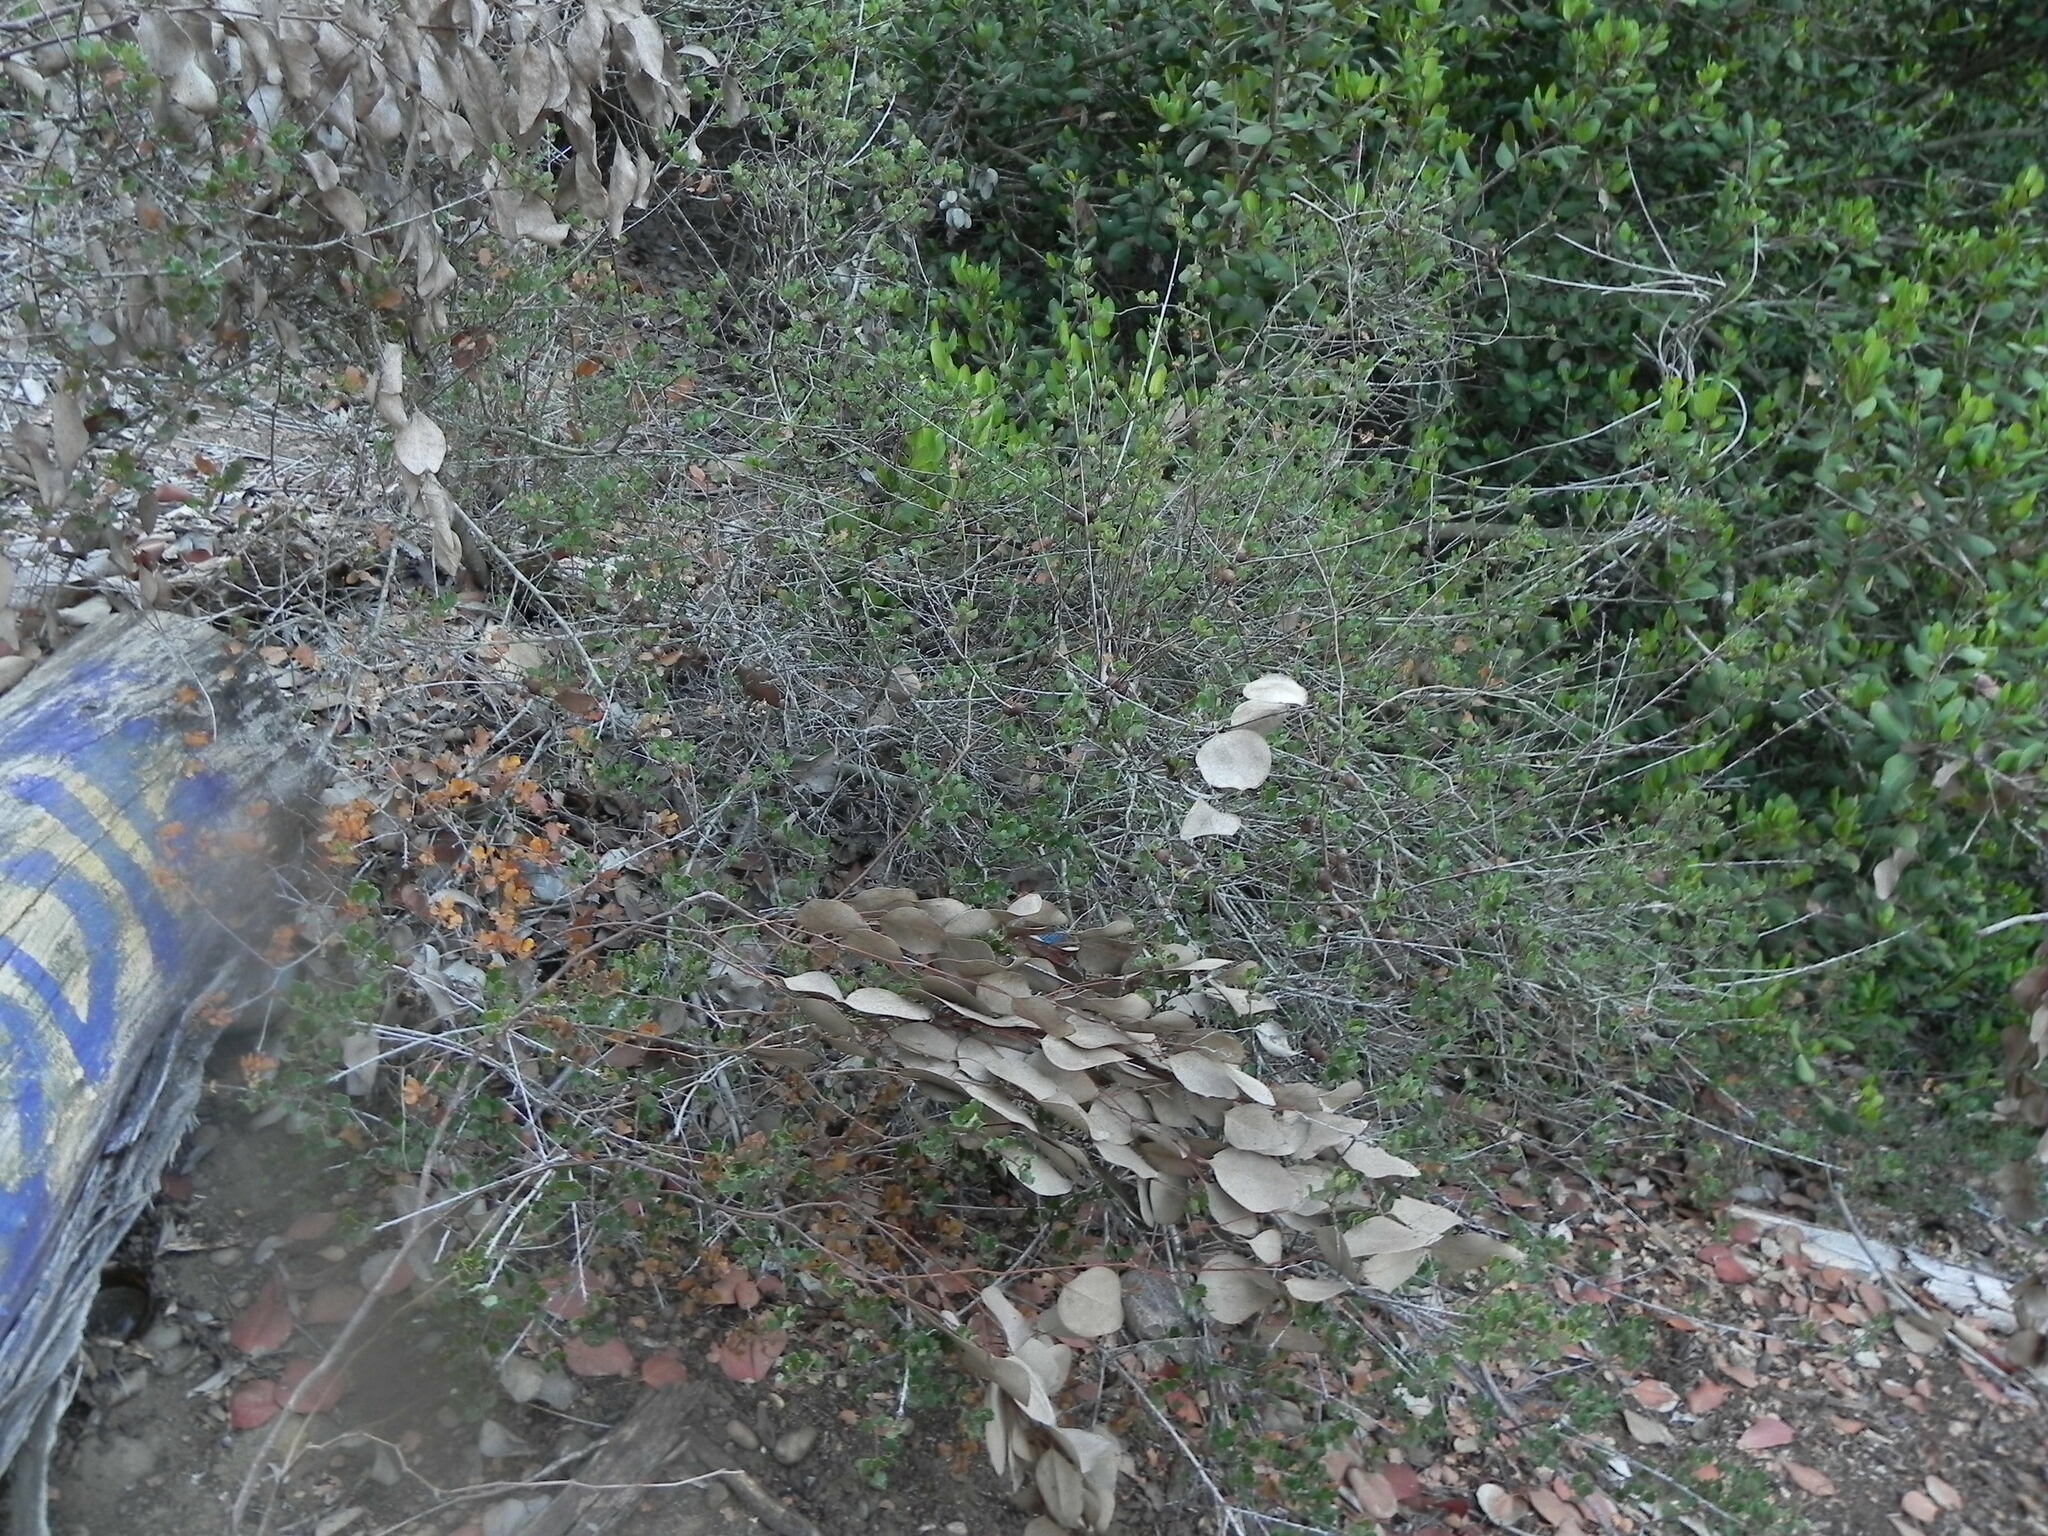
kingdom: Plantae
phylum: Tracheophyta
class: Magnoliopsida
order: Fagales
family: Fagaceae
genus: Quercus
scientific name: Quercus dumosa
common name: Coastal sage scrub oak
